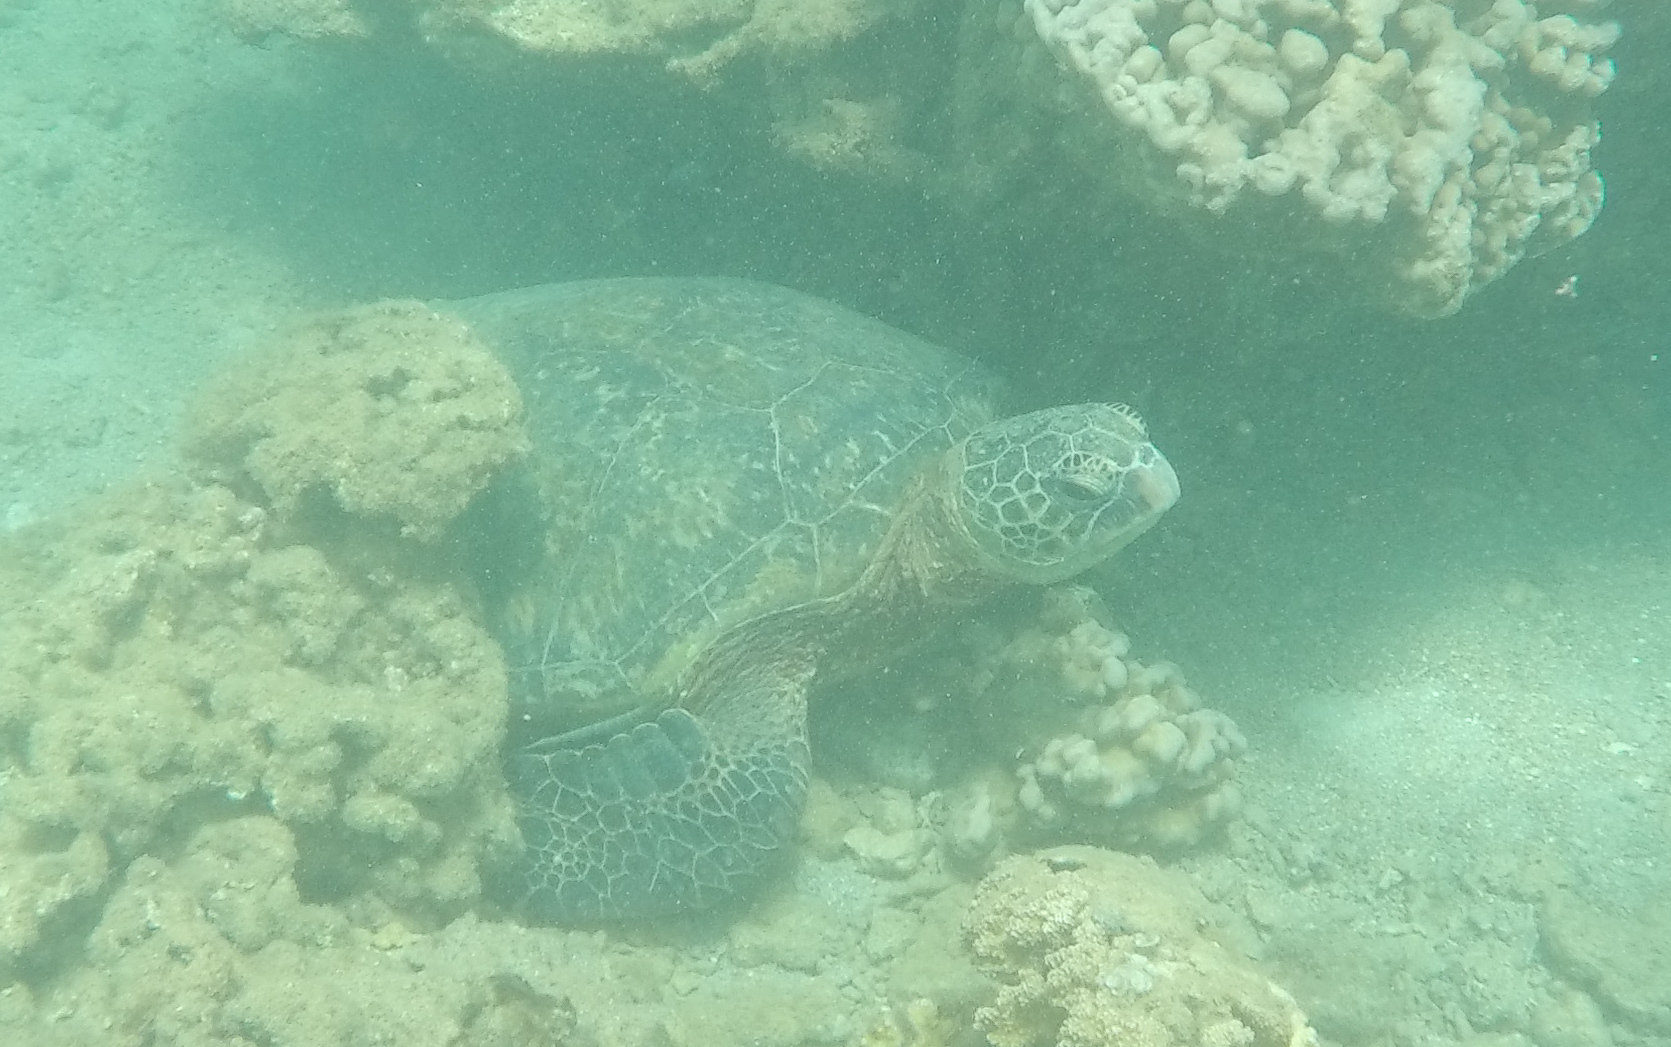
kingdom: Animalia
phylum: Chordata
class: Testudines
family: Cheloniidae
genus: Chelonia
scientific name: Chelonia mydas
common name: Green turtle
